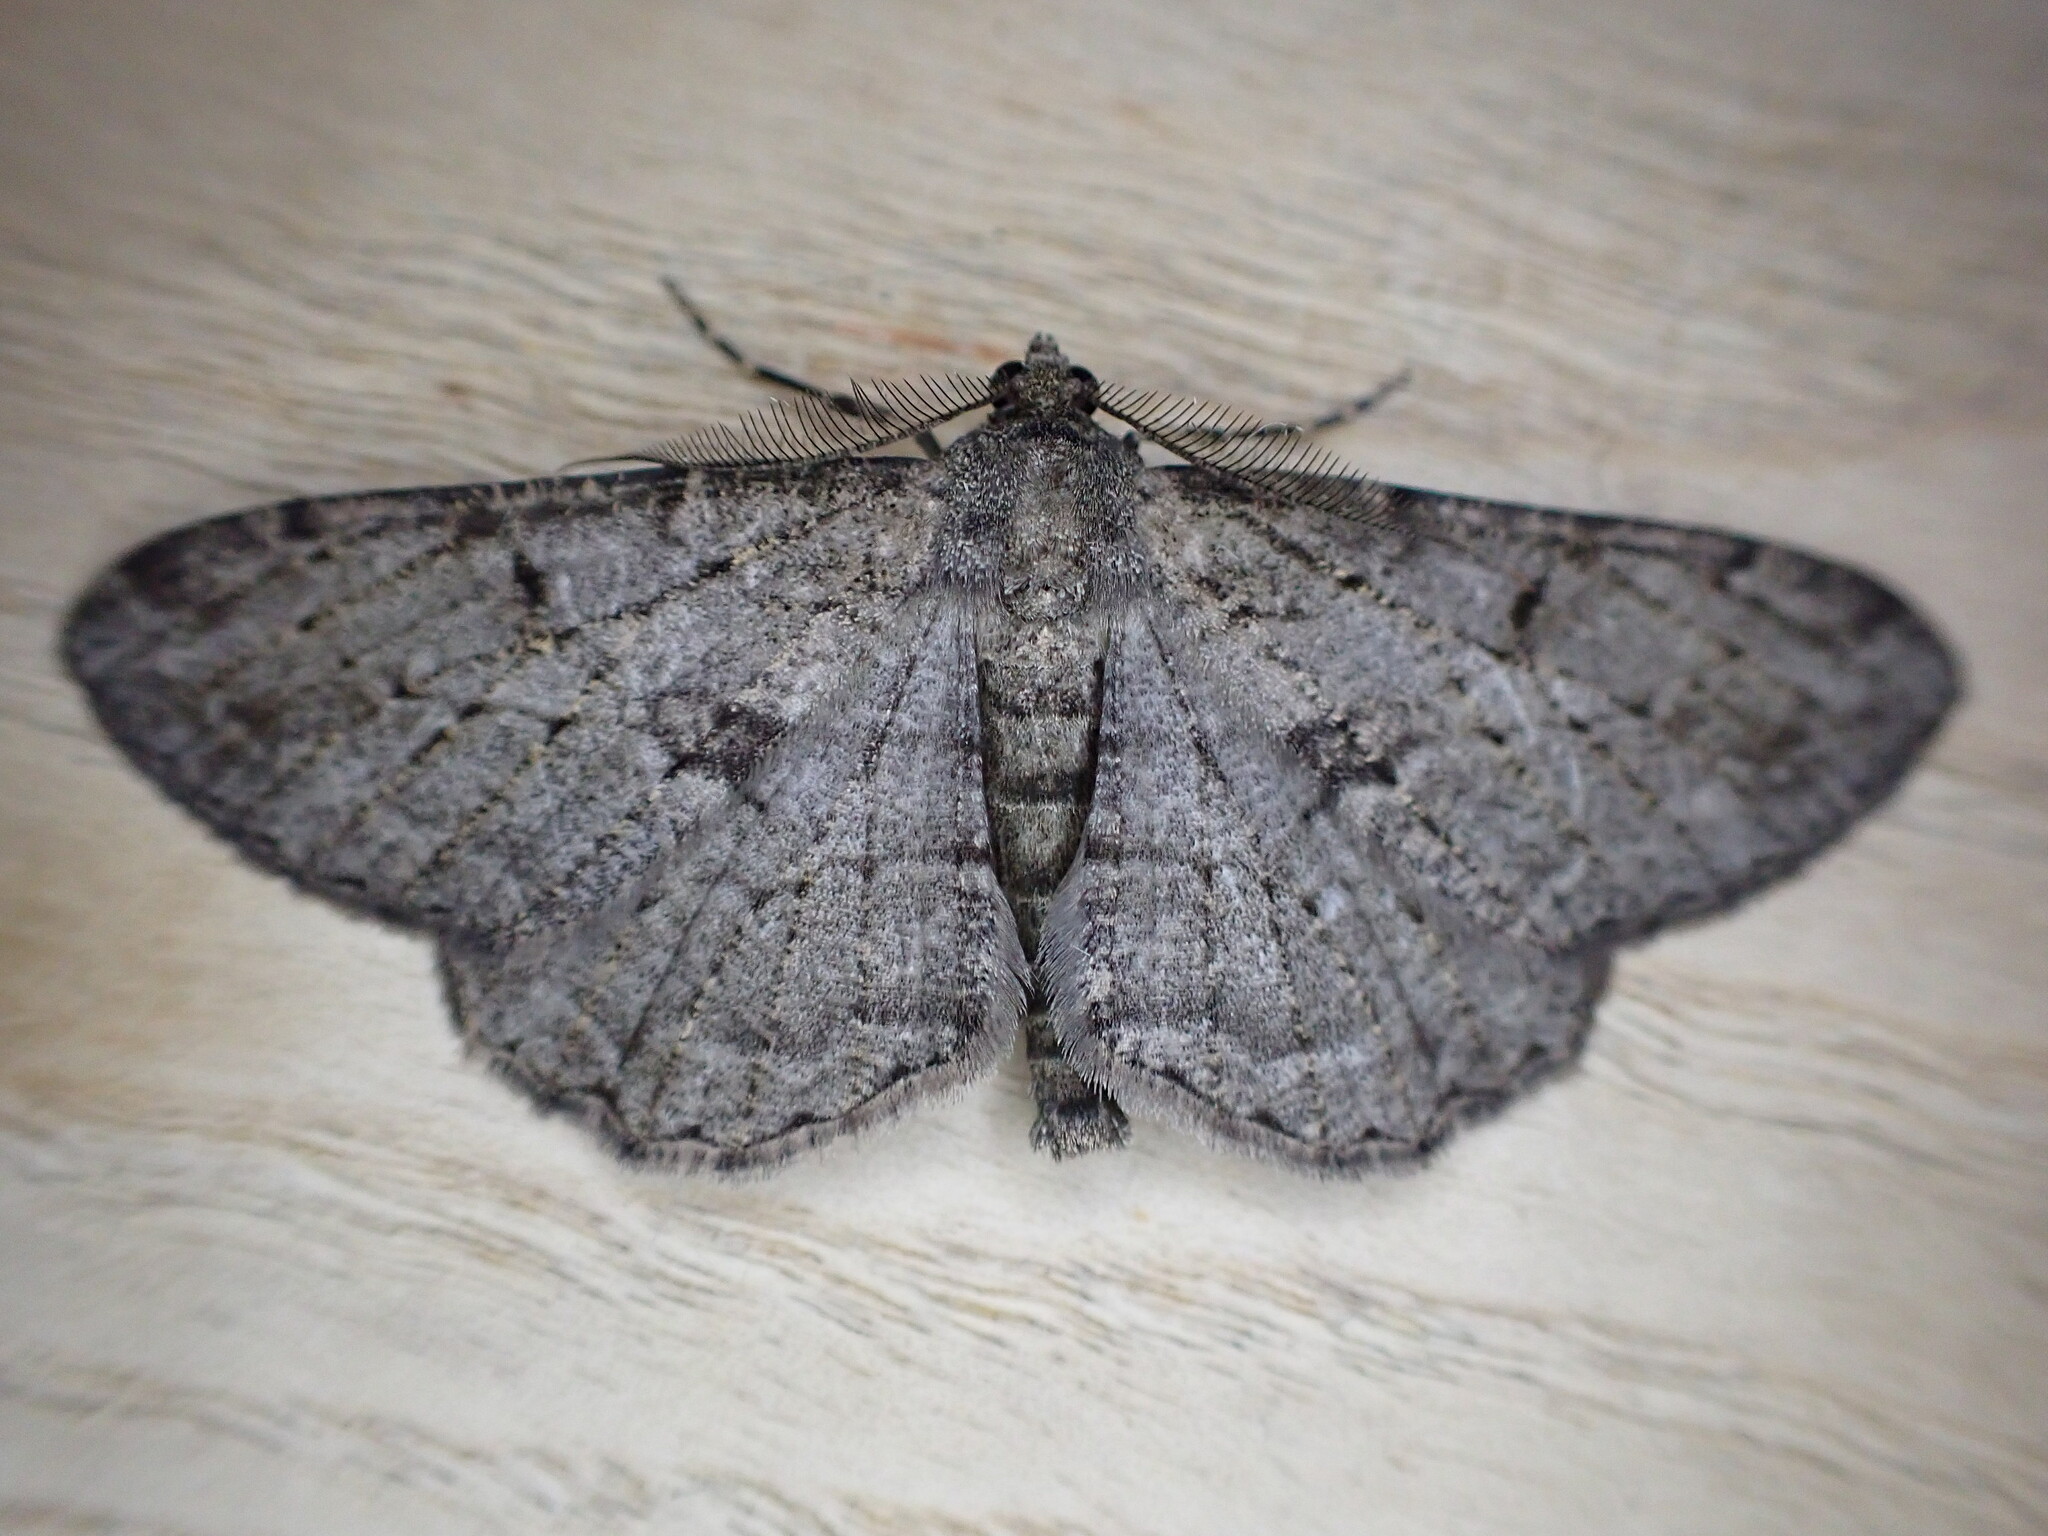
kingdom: Animalia
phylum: Arthropoda
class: Insecta
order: Lepidoptera
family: Geometridae
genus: Peribatodes
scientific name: Peribatodes rhomboidaria
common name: Willow beauty
